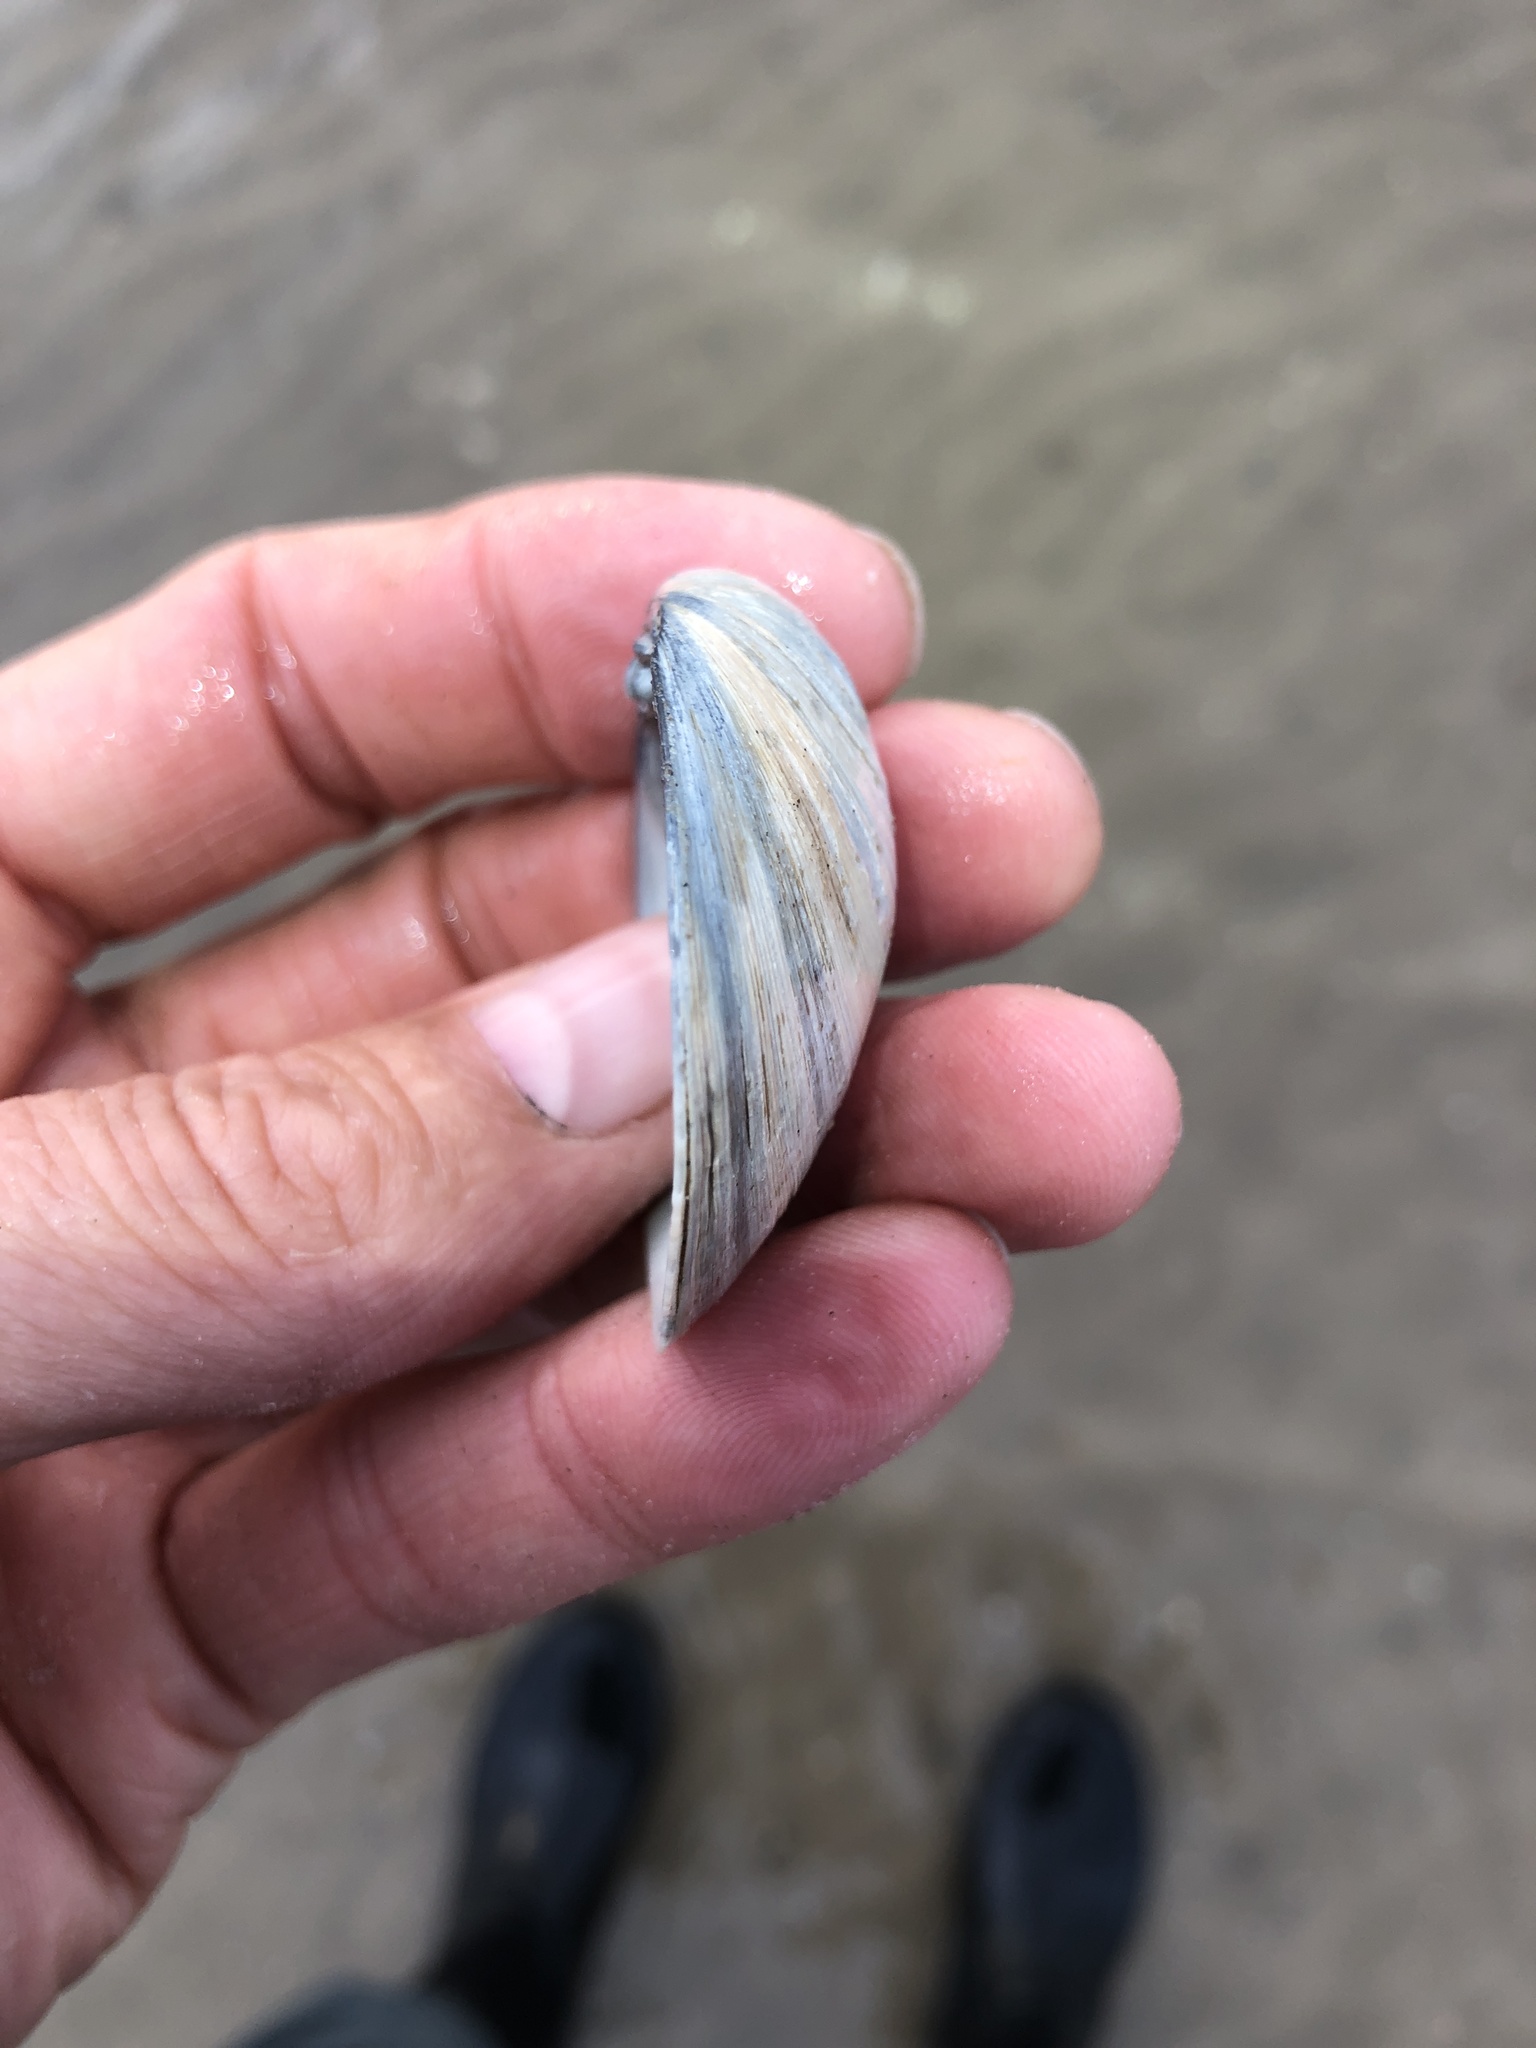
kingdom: Animalia
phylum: Mollusca
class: Bivalvia
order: Venerida
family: Veneridae
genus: Agriopoma
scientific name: Agriopoma texasianum
